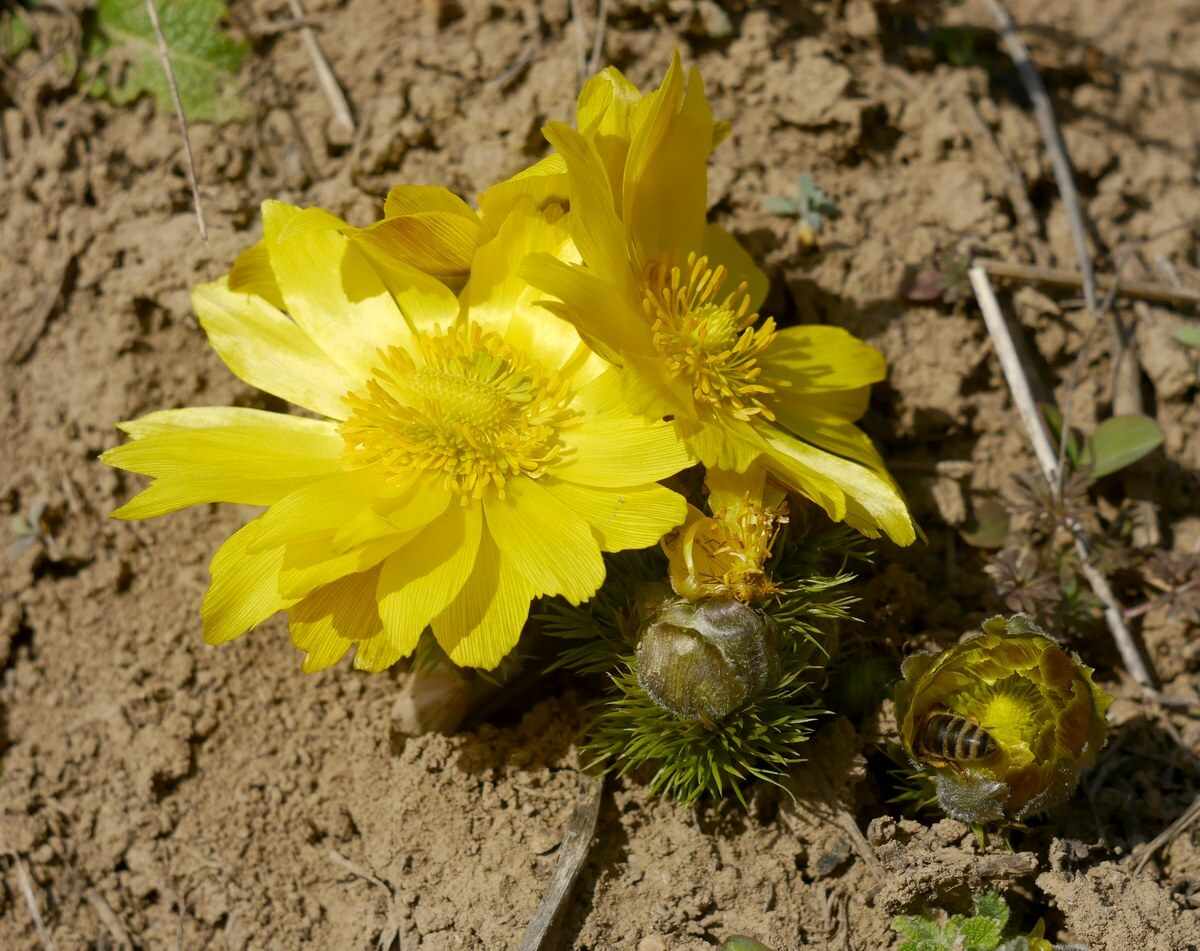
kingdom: Plantae
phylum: Tracheophyta
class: Magnoliopsida
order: Ranunculales
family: Ranunculaceae
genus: Adonis
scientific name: Adonis vernalis
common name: Yellow pheasants-eye
